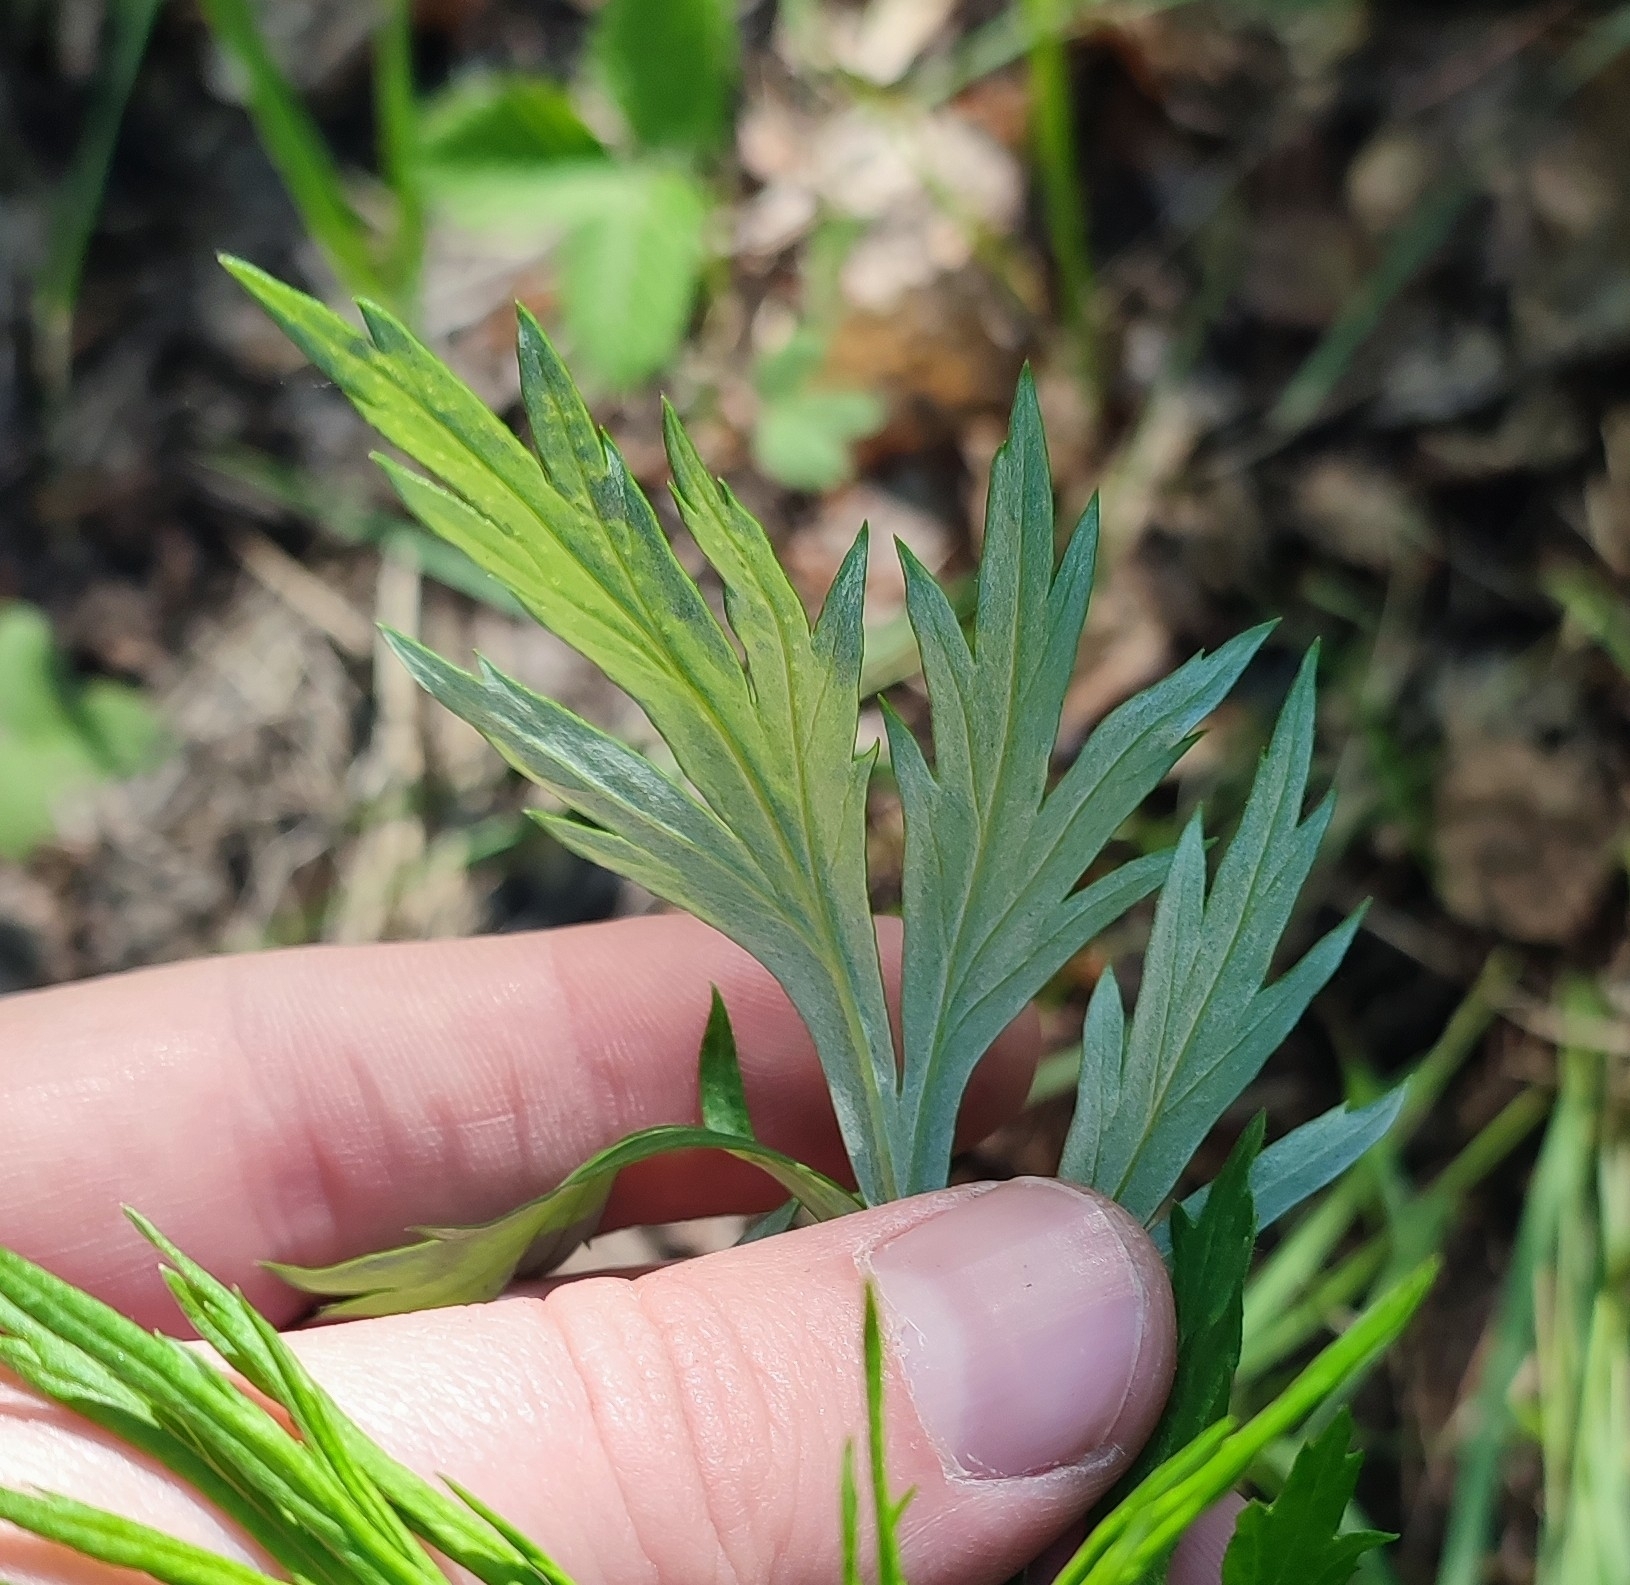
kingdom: Plantae
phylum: Tracheophyta
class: Magnoliopsida
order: Asterales
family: Asteraceae
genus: Artemisia
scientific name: Artemisia vulgaris
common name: Mugwort
